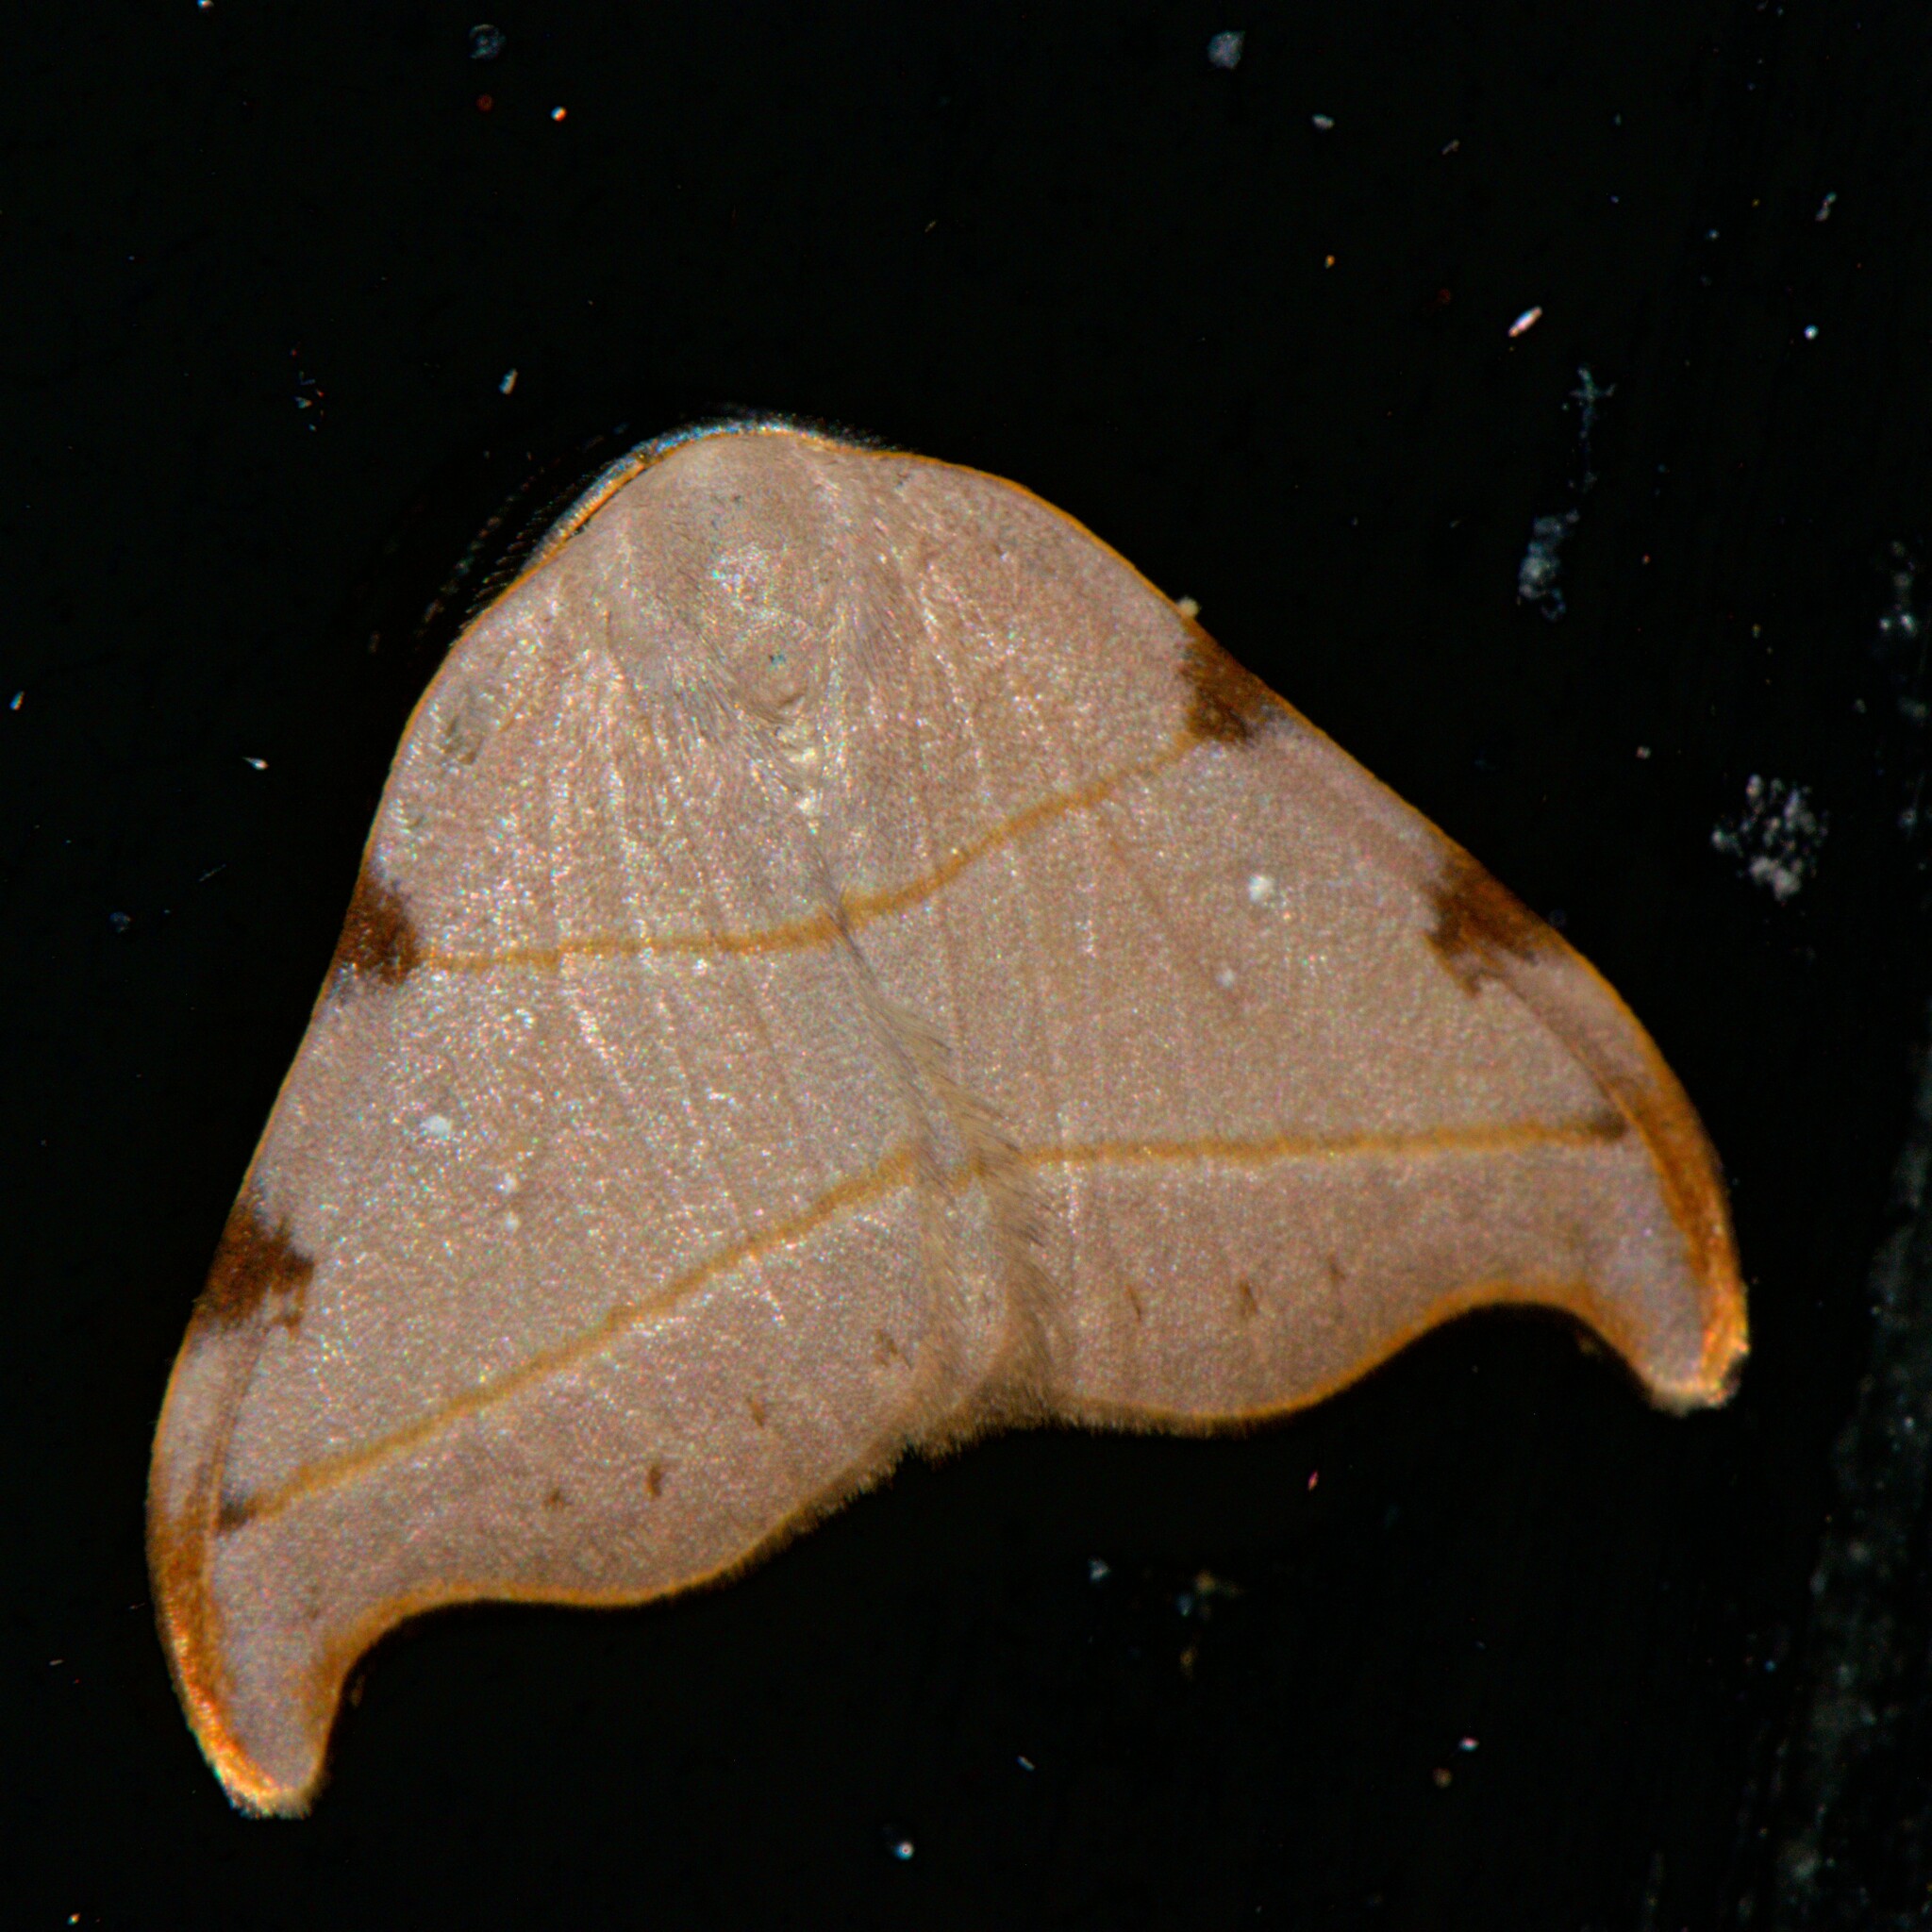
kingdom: Animalia
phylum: Arthropoda
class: Insecta
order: Lepidoptera
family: Drepanidae
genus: Nordstromia
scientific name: Nordstromia bicostata
